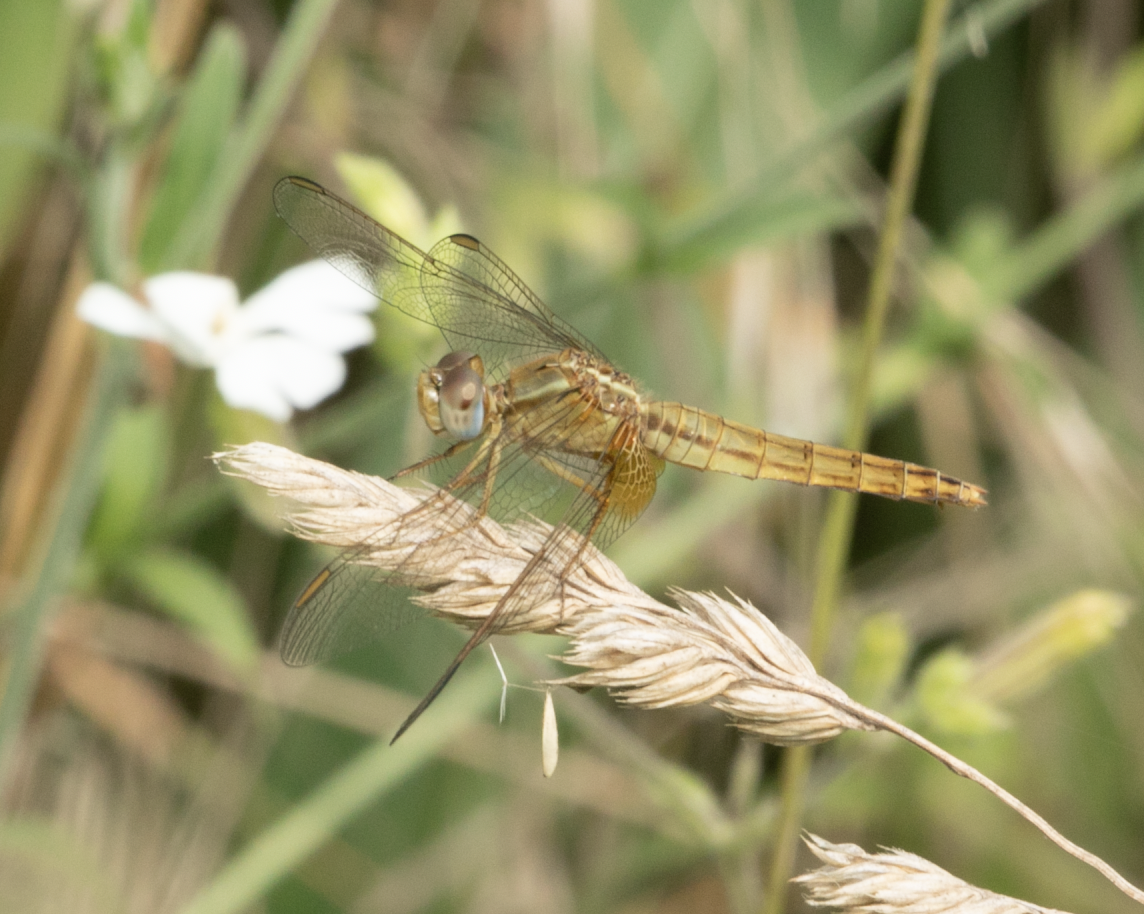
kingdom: Animalia
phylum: Arthropoda
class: Insecta
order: Odonata
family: Libellulidae
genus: Crocothemis
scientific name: Crocothemis erythraea
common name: Scarlet dragonfly
